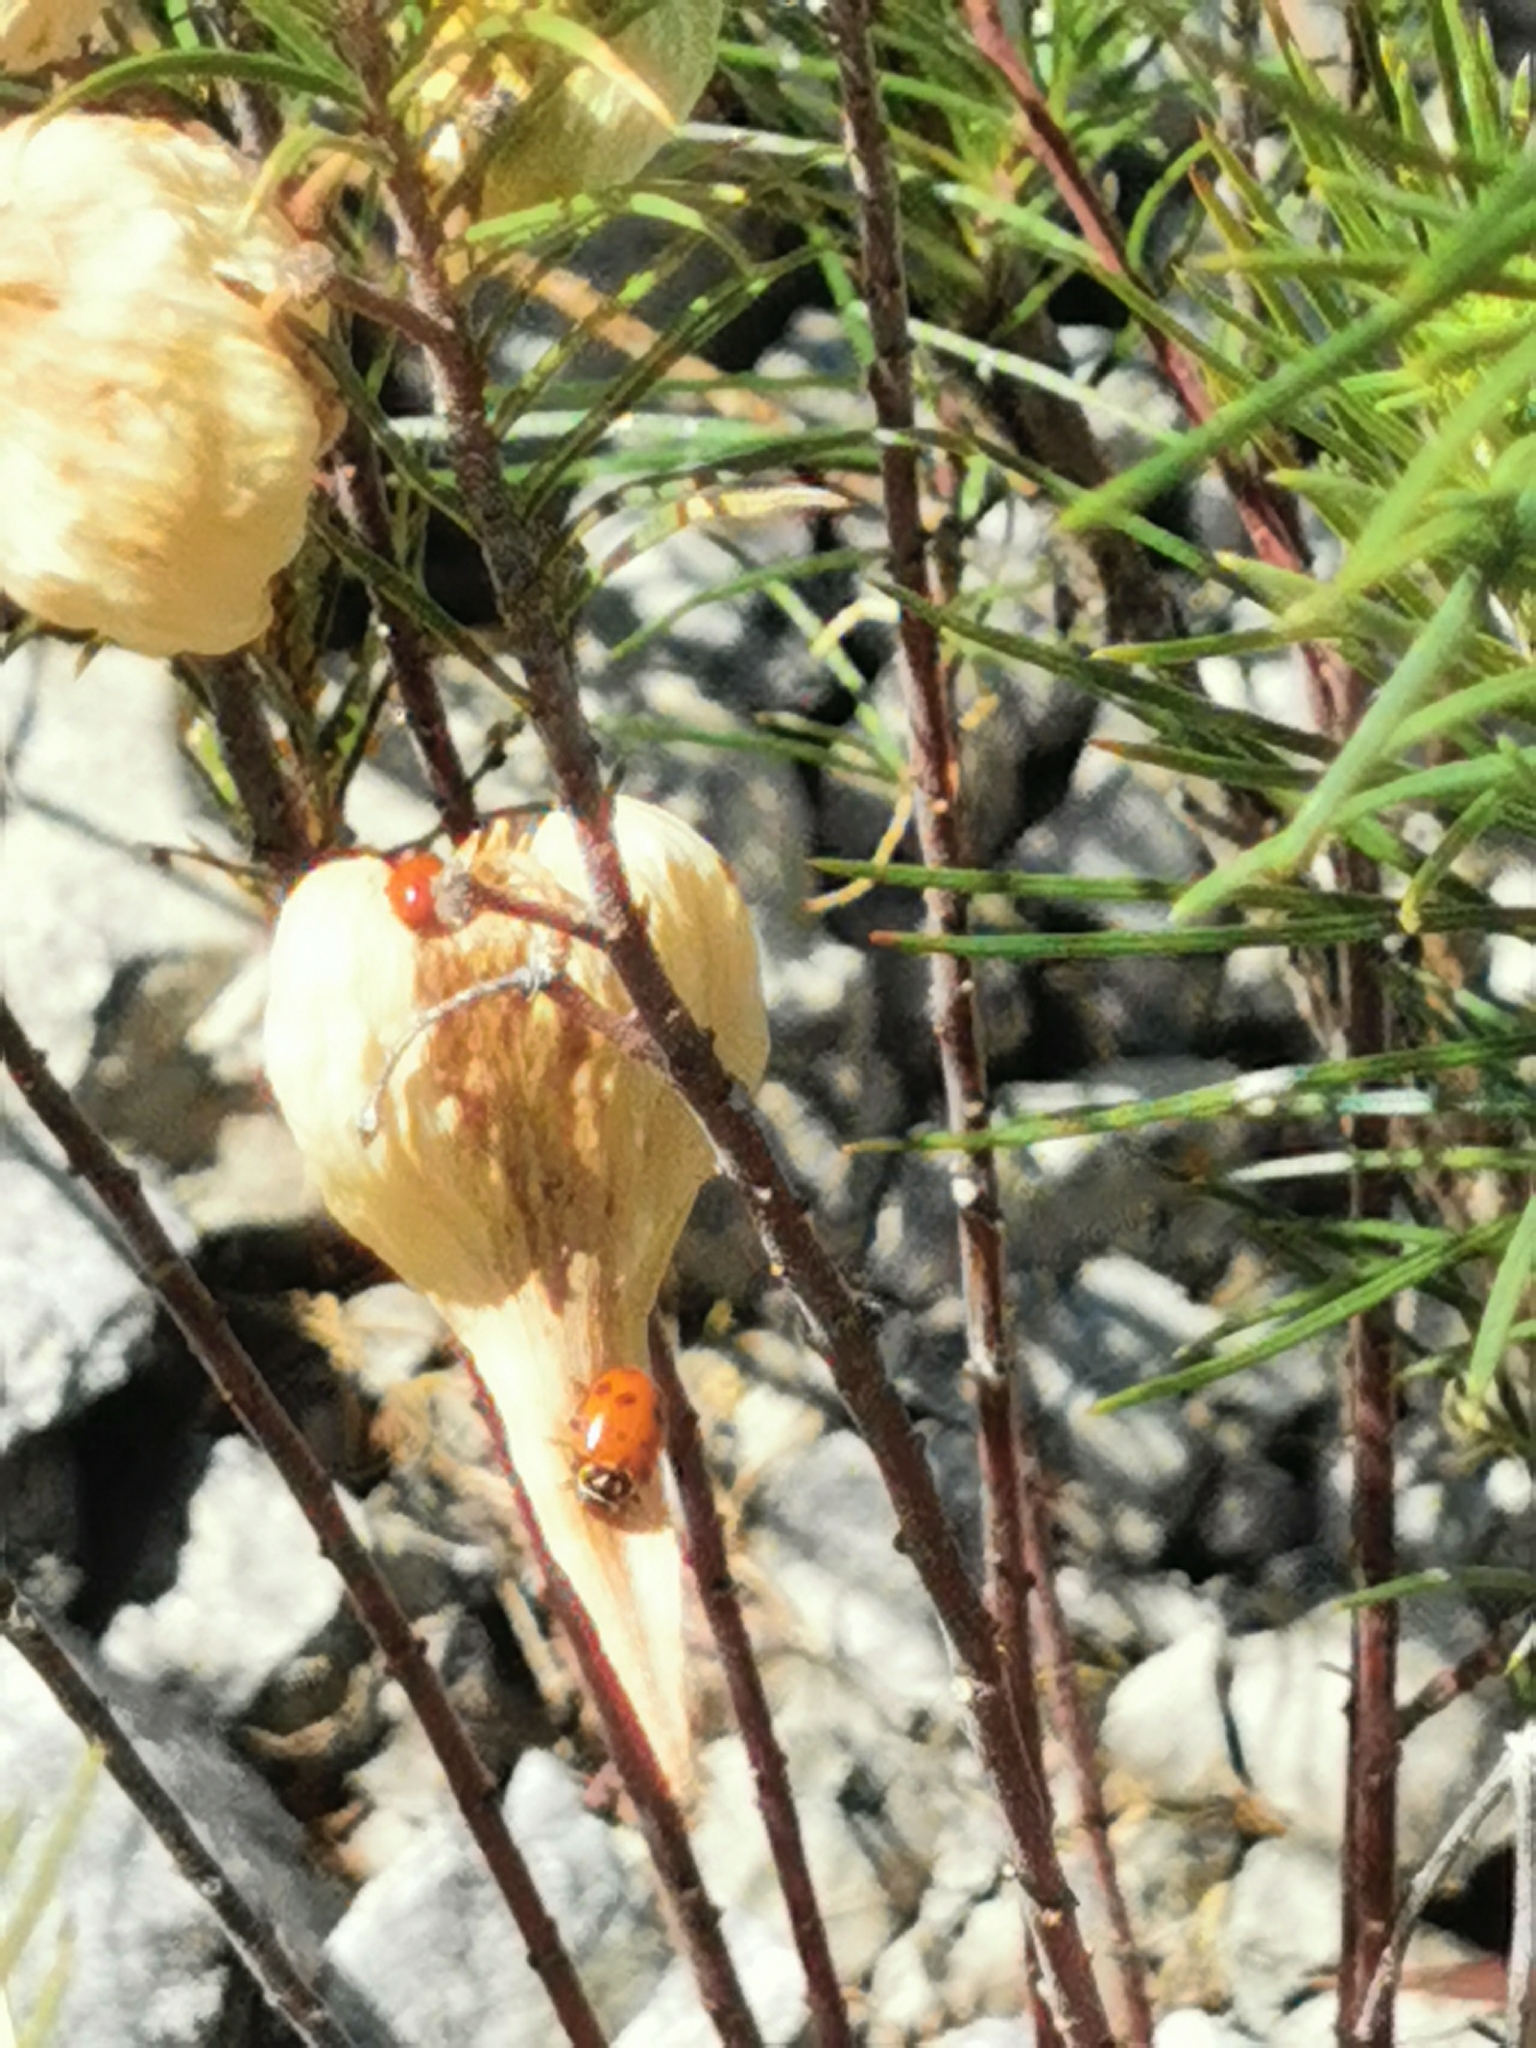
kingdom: Animalia
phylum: Arthropoda
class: Insecta
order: Coleoptera
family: Coccinellidae
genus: Hippodamia
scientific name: Hippodamia convergens
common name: Convergent lady beetle
